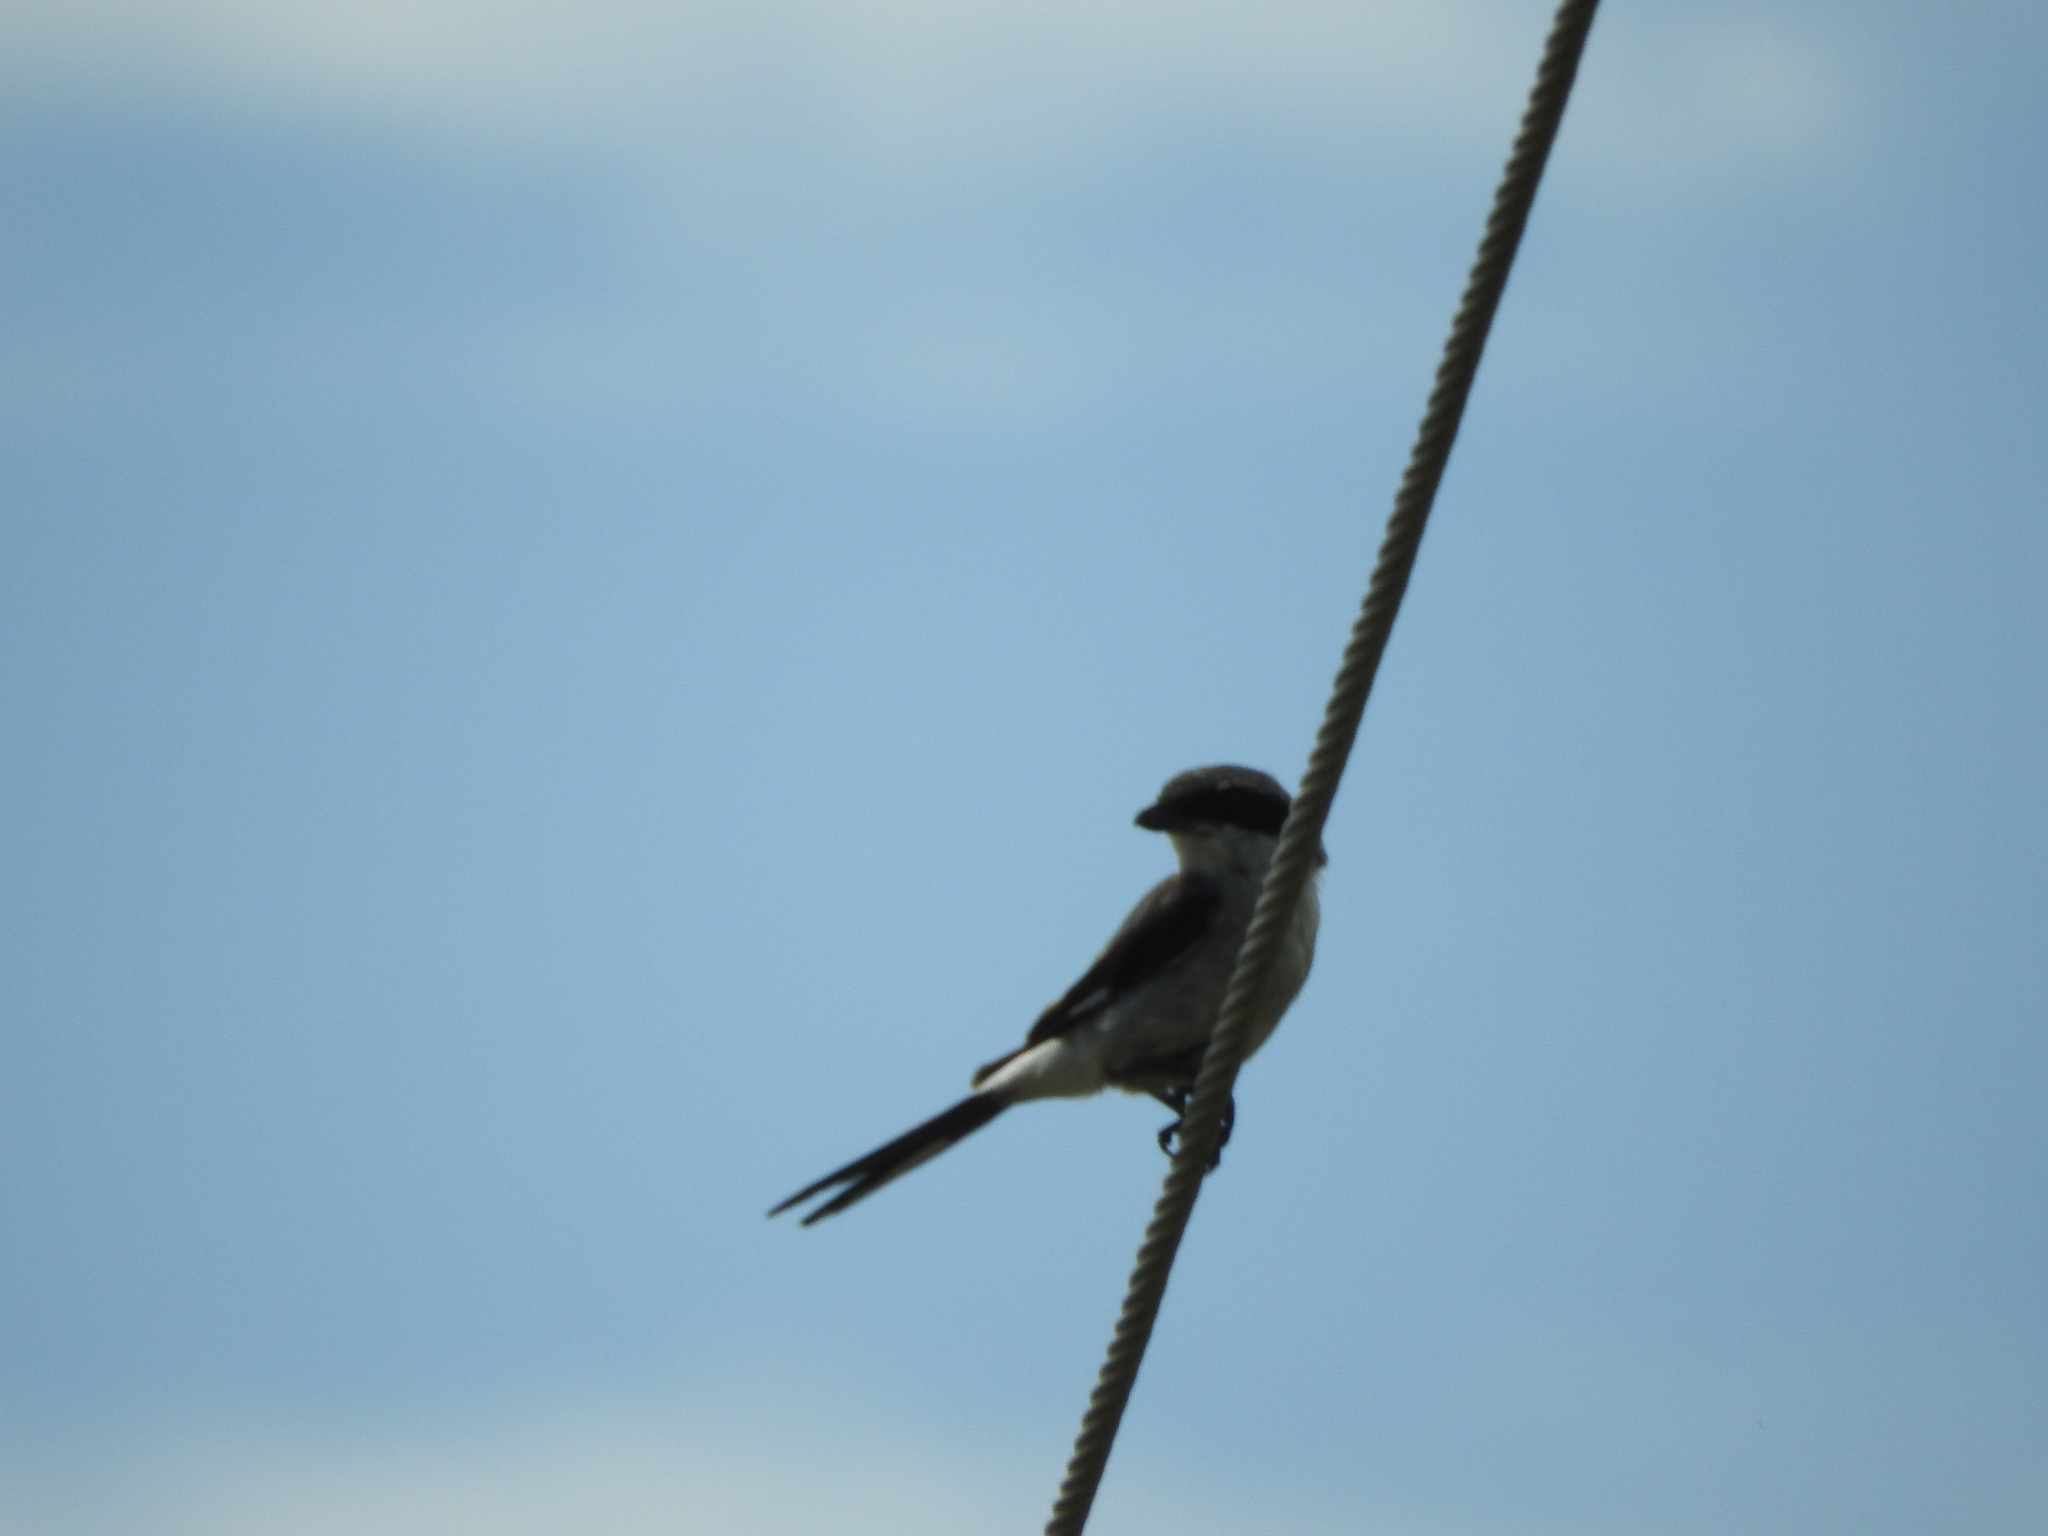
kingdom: Animalia
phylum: Chordata
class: Aves
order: Passeriformes
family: Laniidae
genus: Lanius
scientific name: Lanius ludovicianus
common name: Loggerhead shrike
